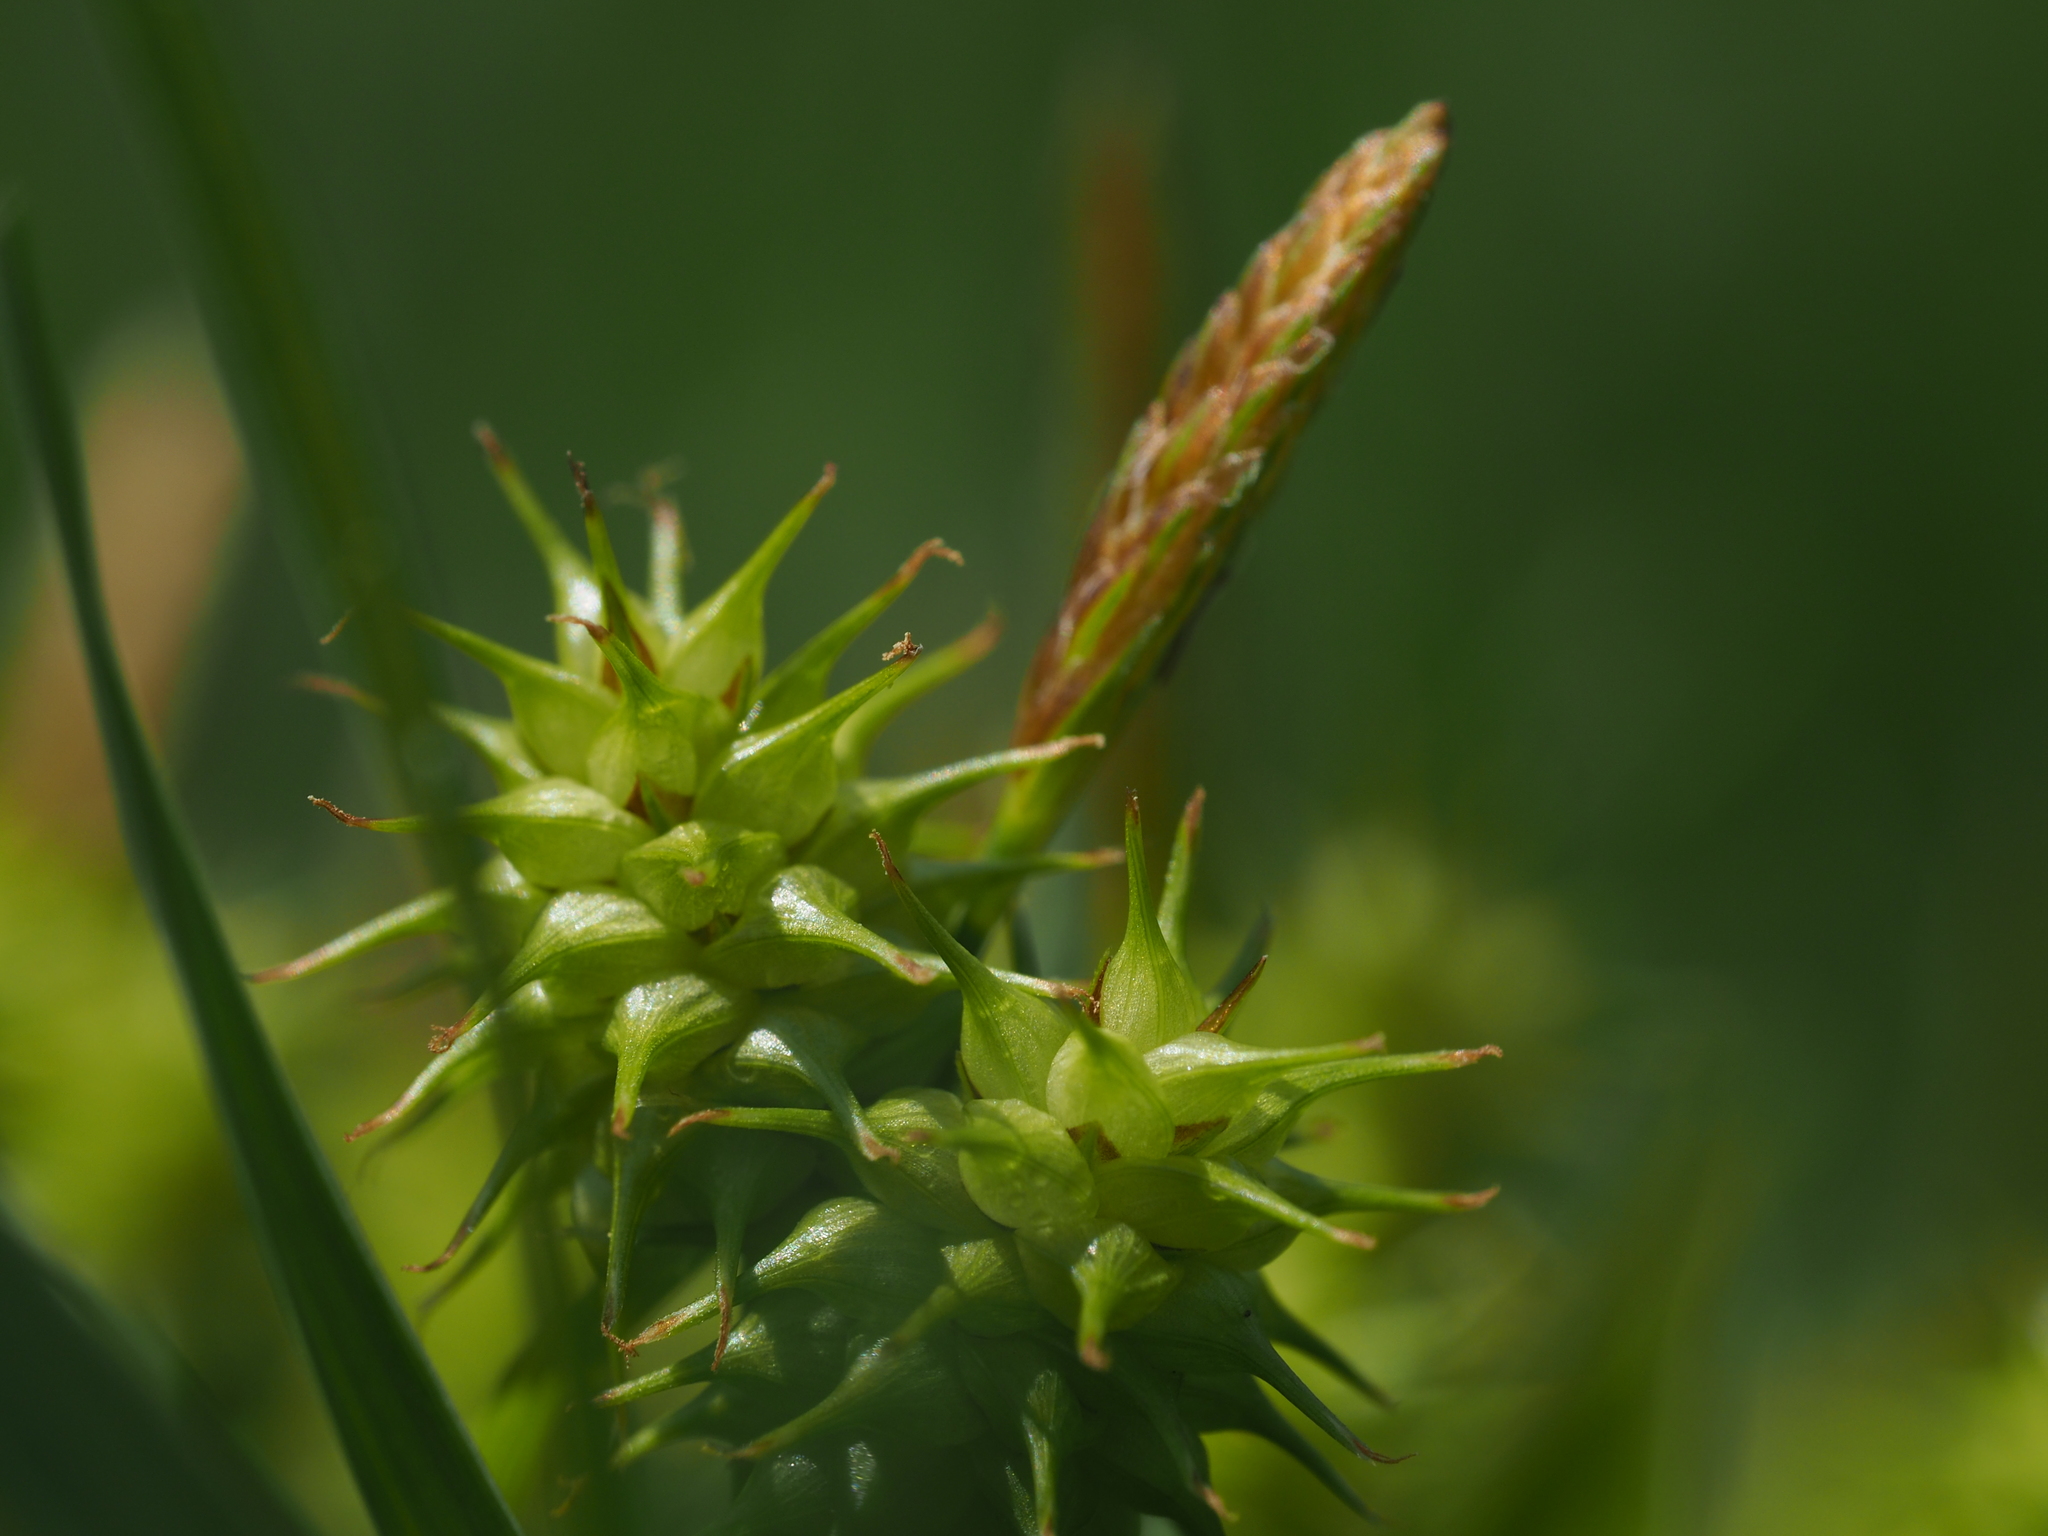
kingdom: Plantae
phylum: Tracheophyta
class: Liliopsida
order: Poales
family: Cyperaceae
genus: Carex
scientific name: Carex flava
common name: Large yellow-sedge
